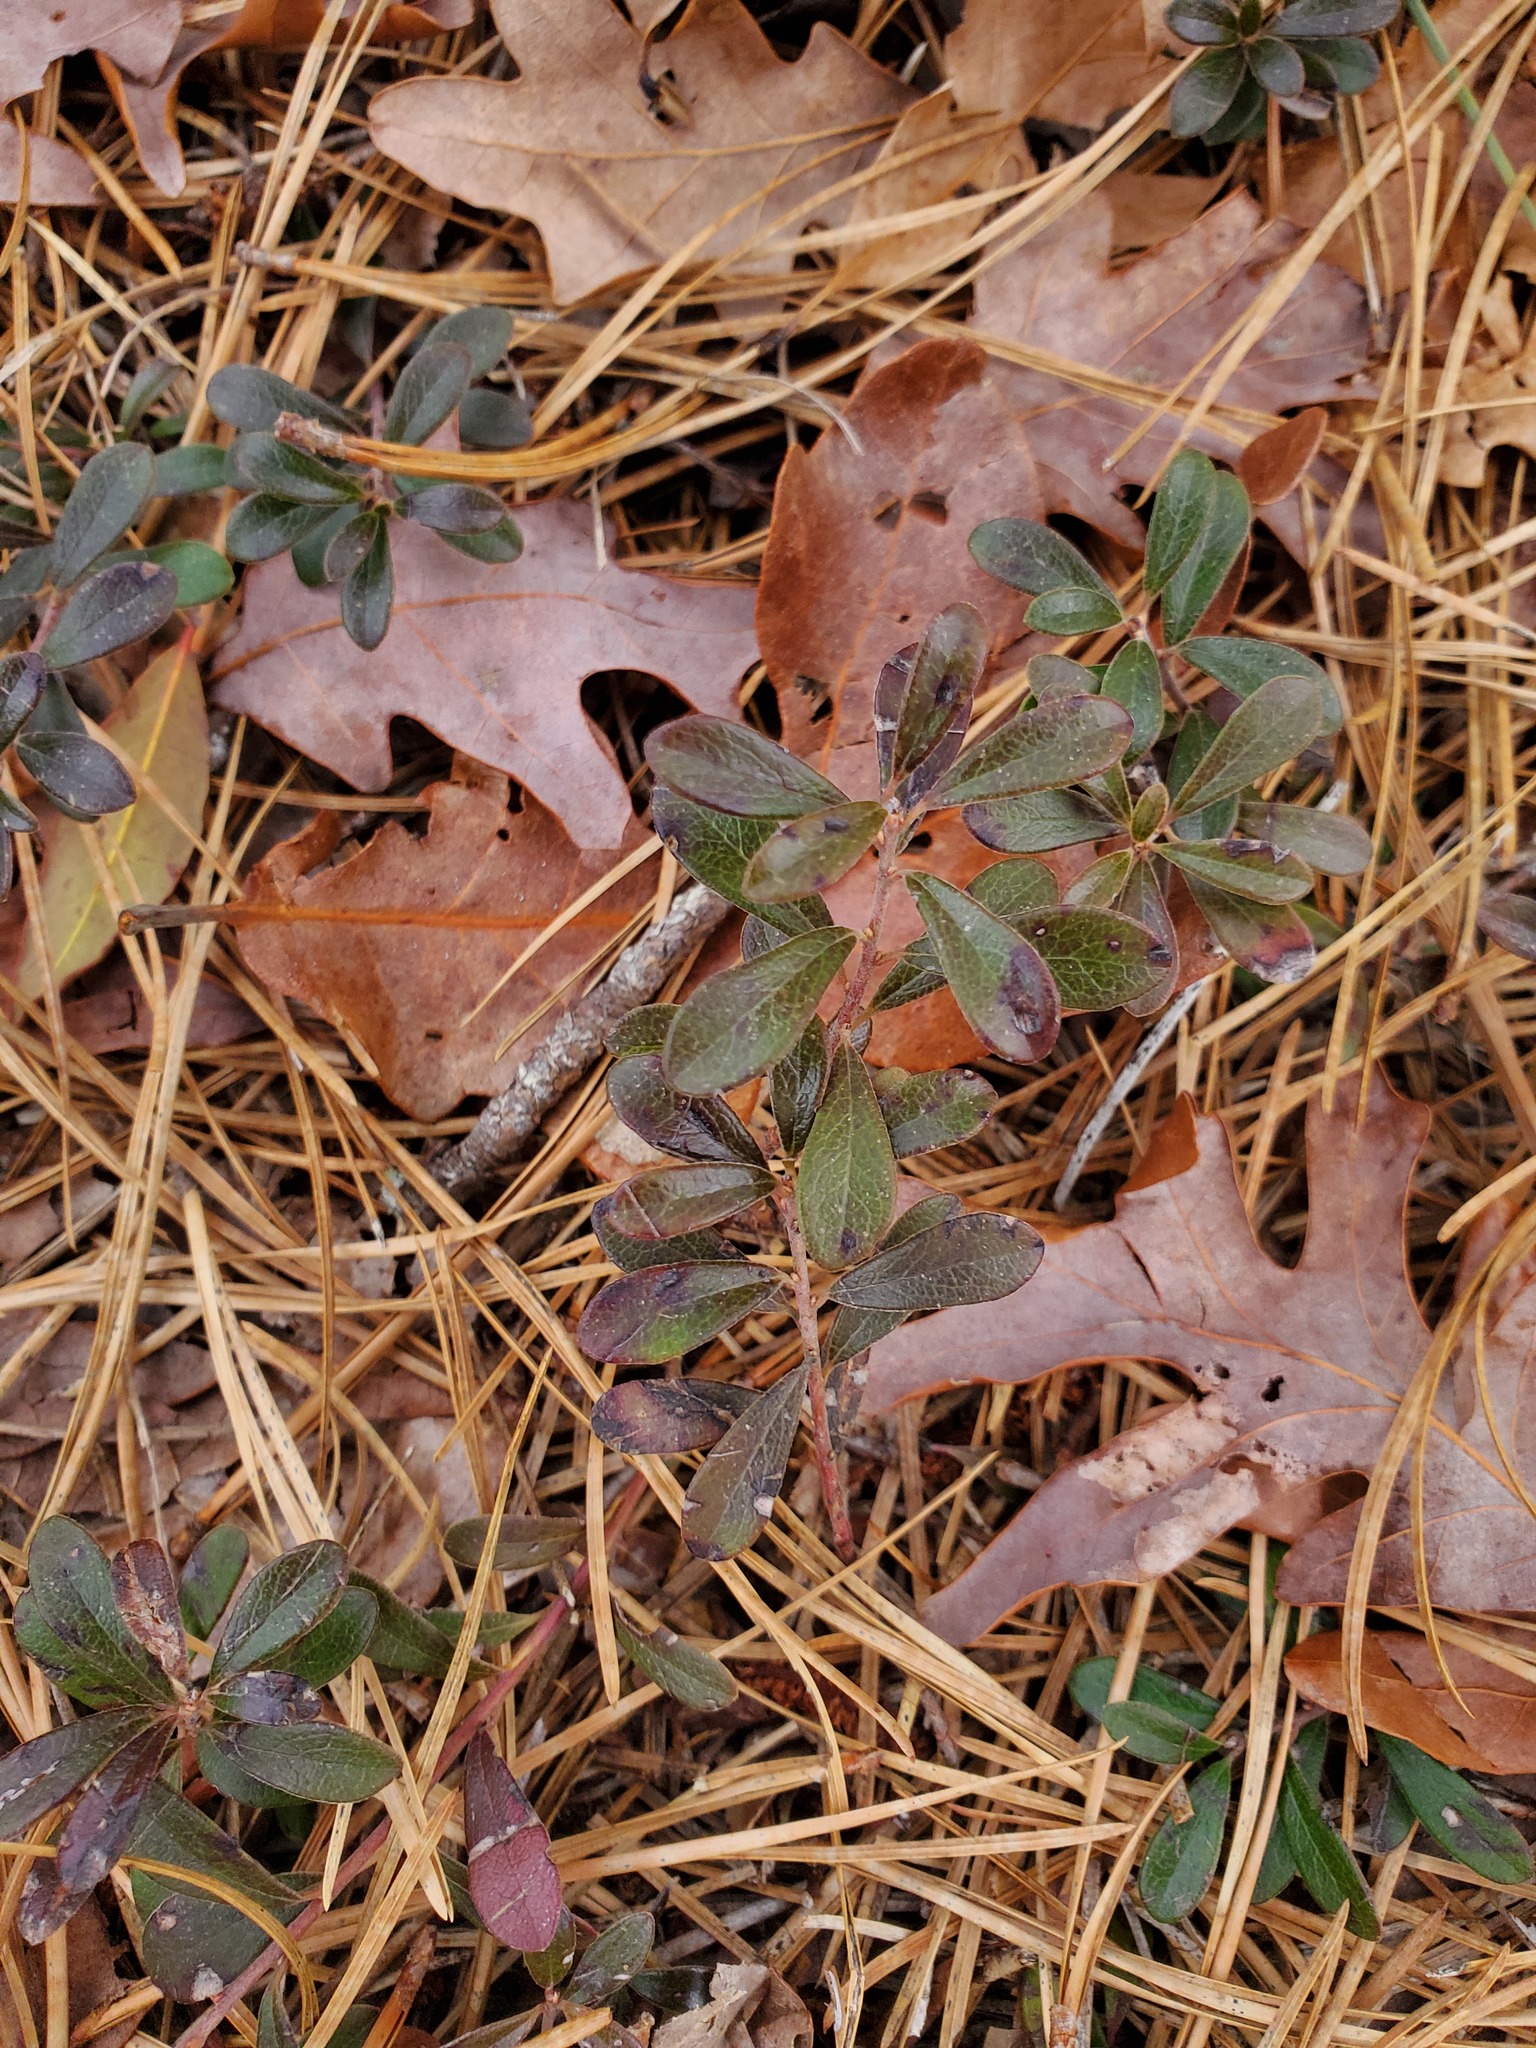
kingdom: Plantae
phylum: Tracheophyta
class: Magnoliopsida
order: Ericales
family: Ericaceae
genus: Arctostaphylos
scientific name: Arctostaphylos uva-ursi
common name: Bearberry
